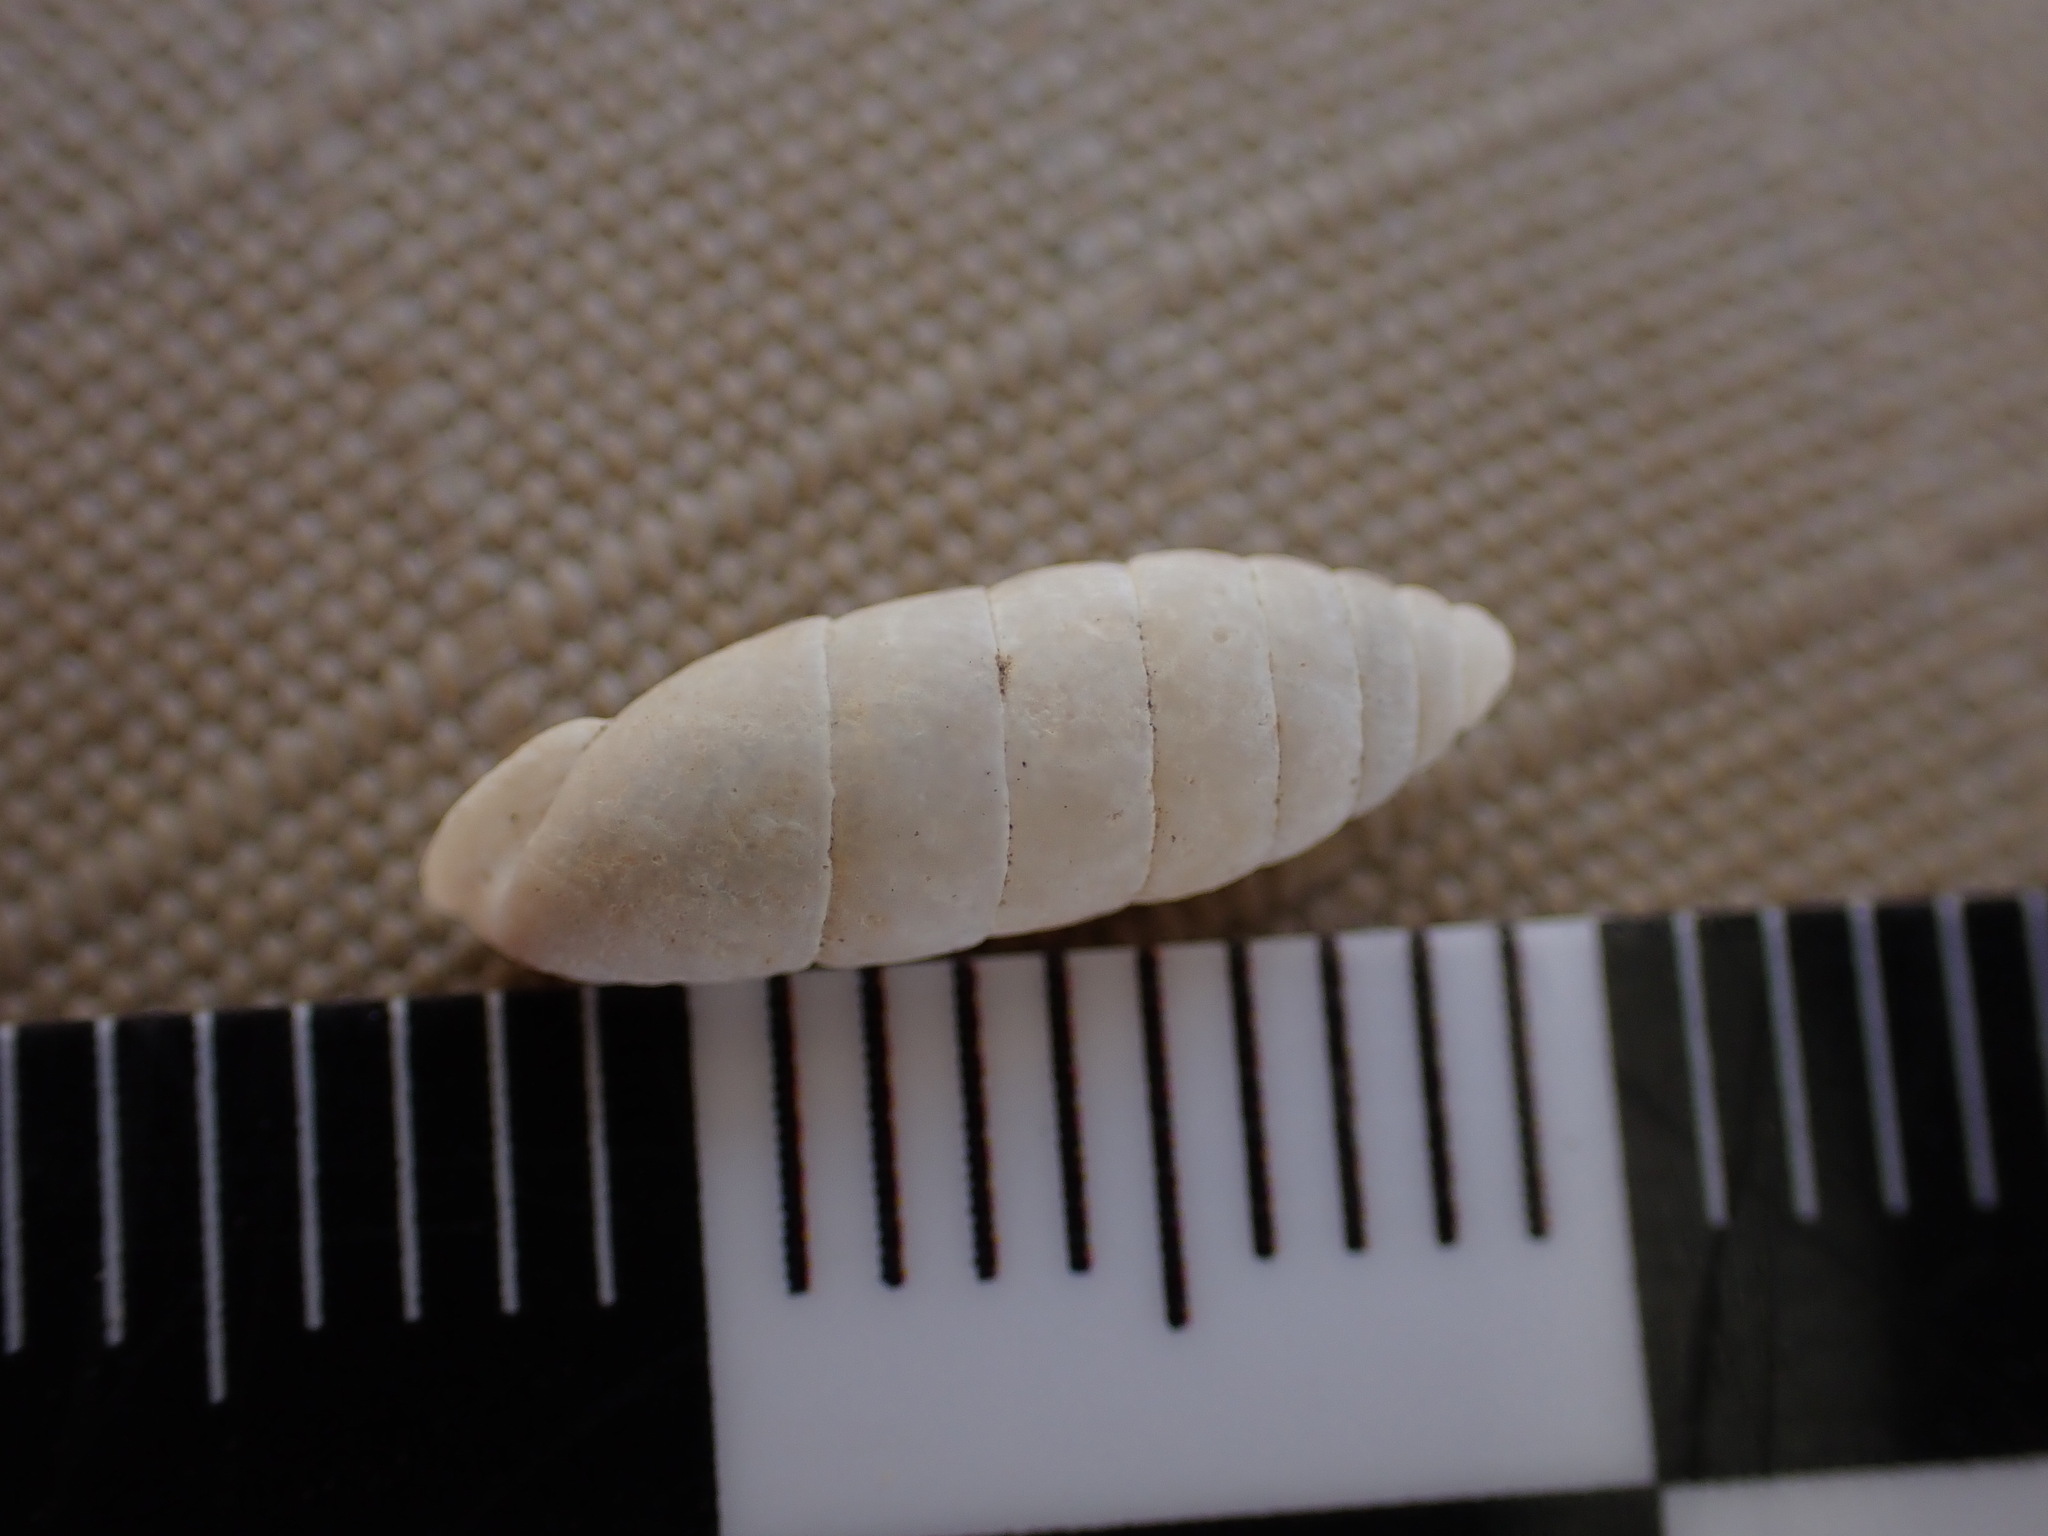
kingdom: Animalia
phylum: Mollusca
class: Gastropoda
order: Stylommatophora
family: Enidae
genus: Jaminia
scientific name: Jaminia quadridens
